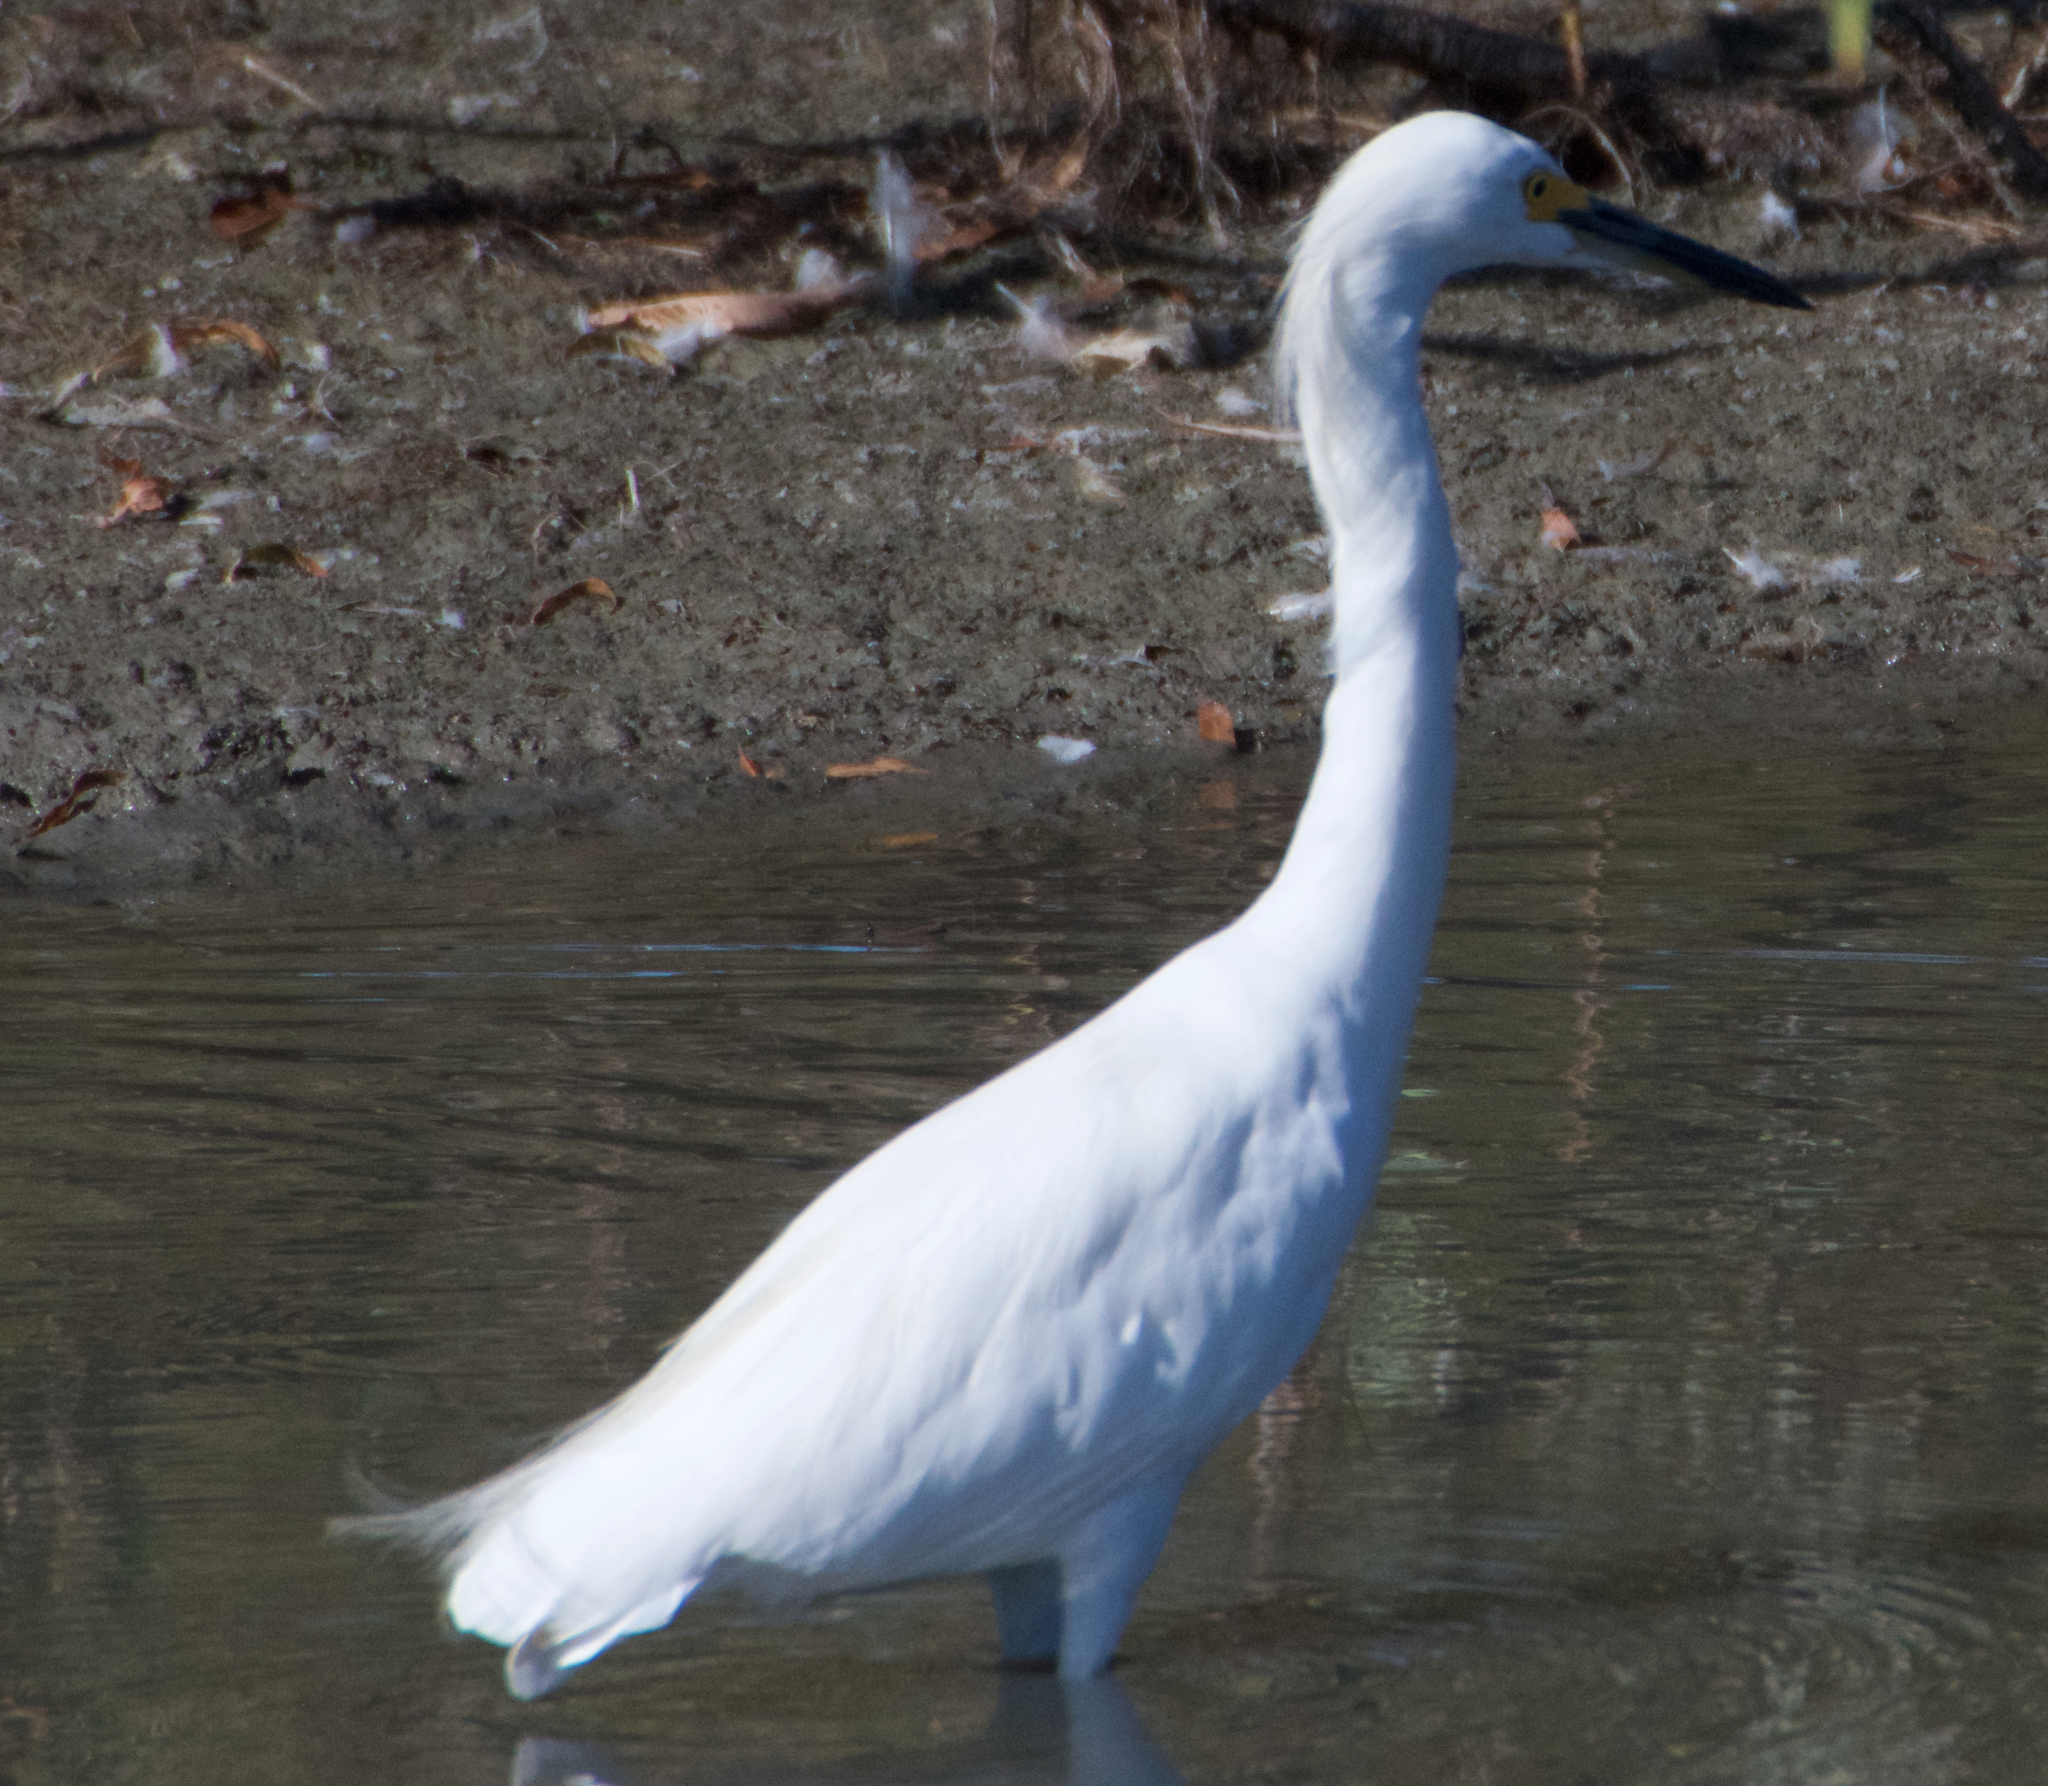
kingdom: Animalia
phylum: Chordata
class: Aves
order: Pelecaniformes
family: Ardeidae
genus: Egretta
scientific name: Egretta thula
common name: Snowy egret
